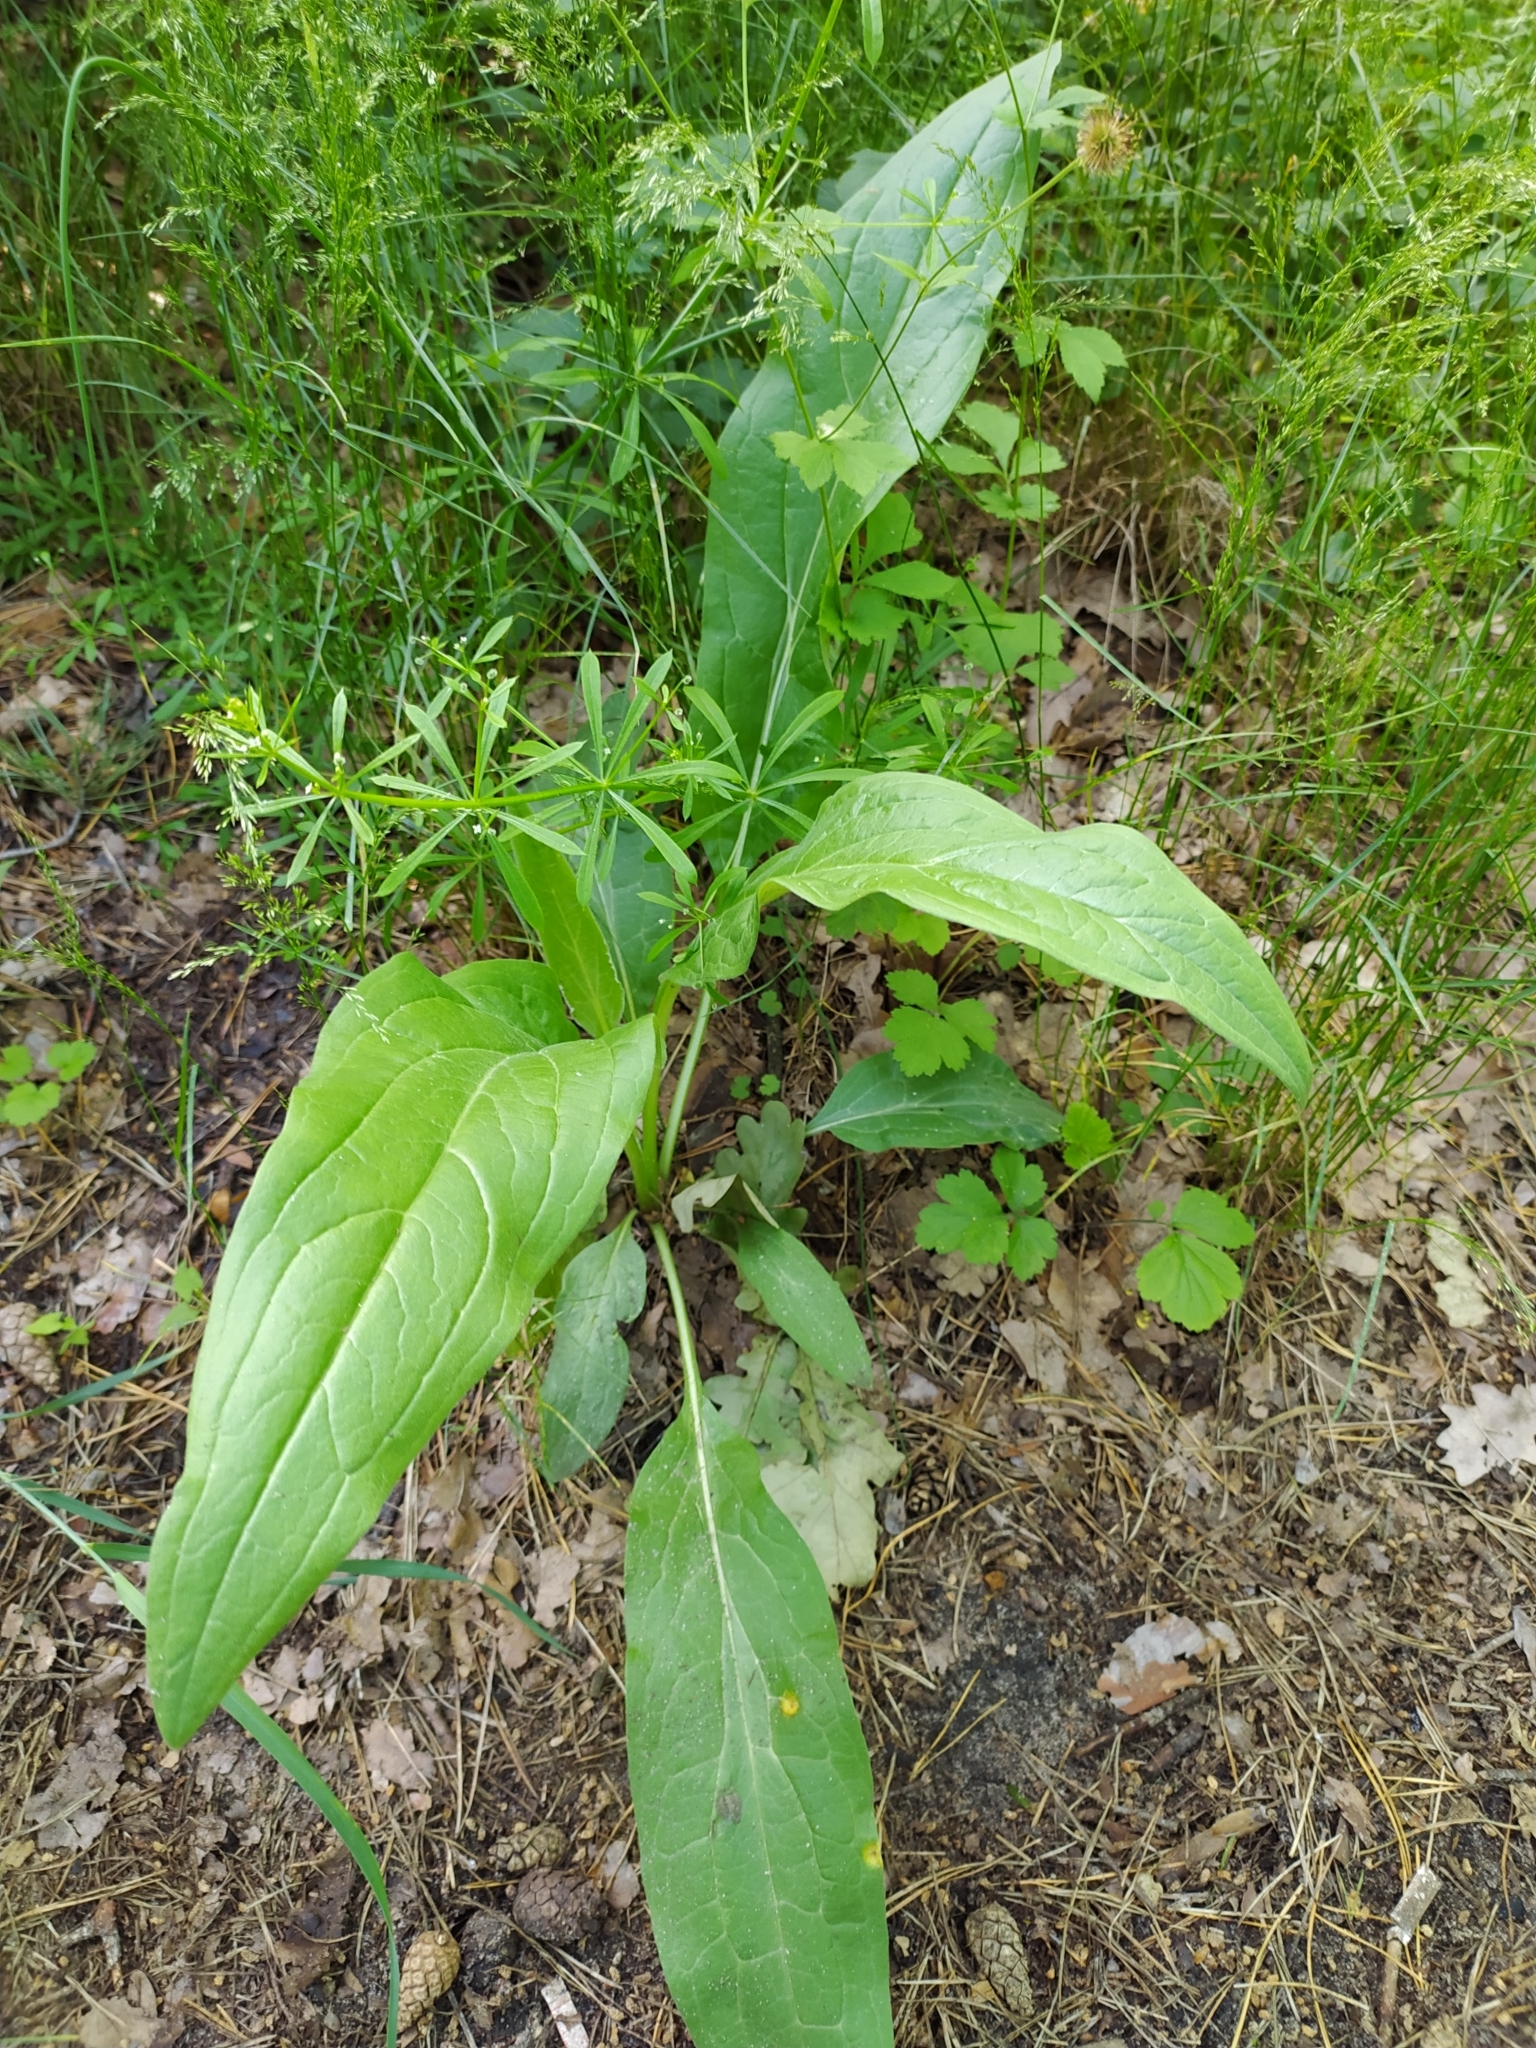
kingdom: Plantae
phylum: Tracheophyta
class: Magnoliopsida
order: Boraginales
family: Boraginaceae
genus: Cynoglossum
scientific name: Cynoglossum officinale
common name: Hound's-tongue
